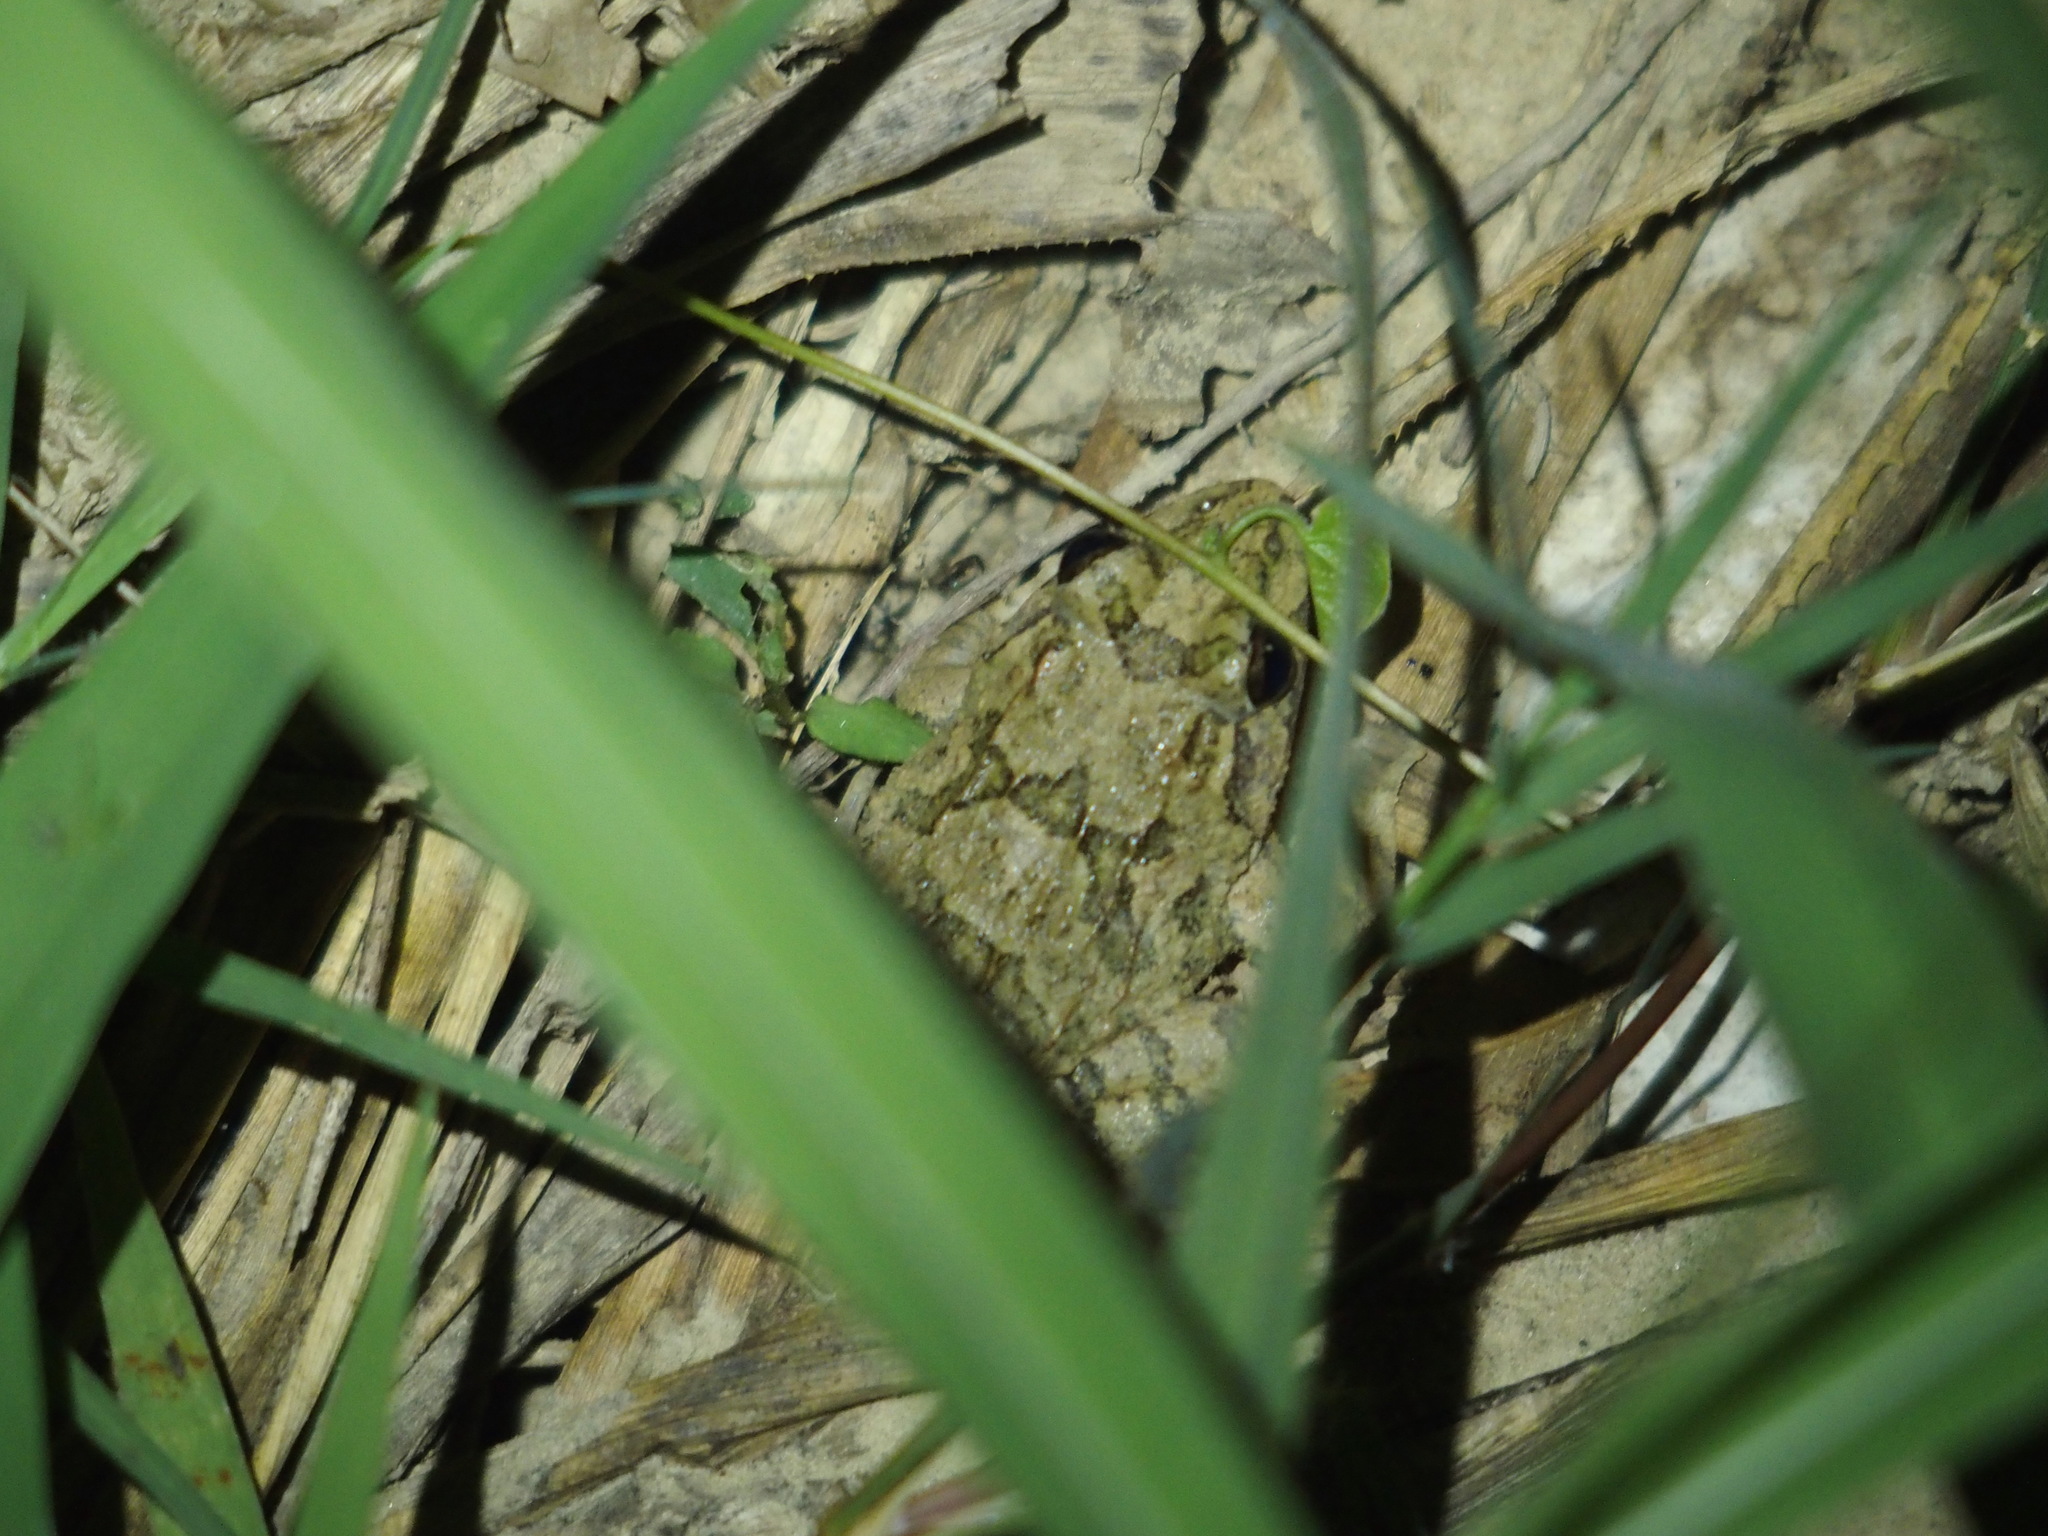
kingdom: Animalia
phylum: Chordata
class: Amphibia
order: Anura
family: Dicroglossidae
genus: Fejervarya
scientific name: Fejervarya limnocharis
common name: Asian grass frog/common pond frog/field frog/grass frog/indian rice frog
